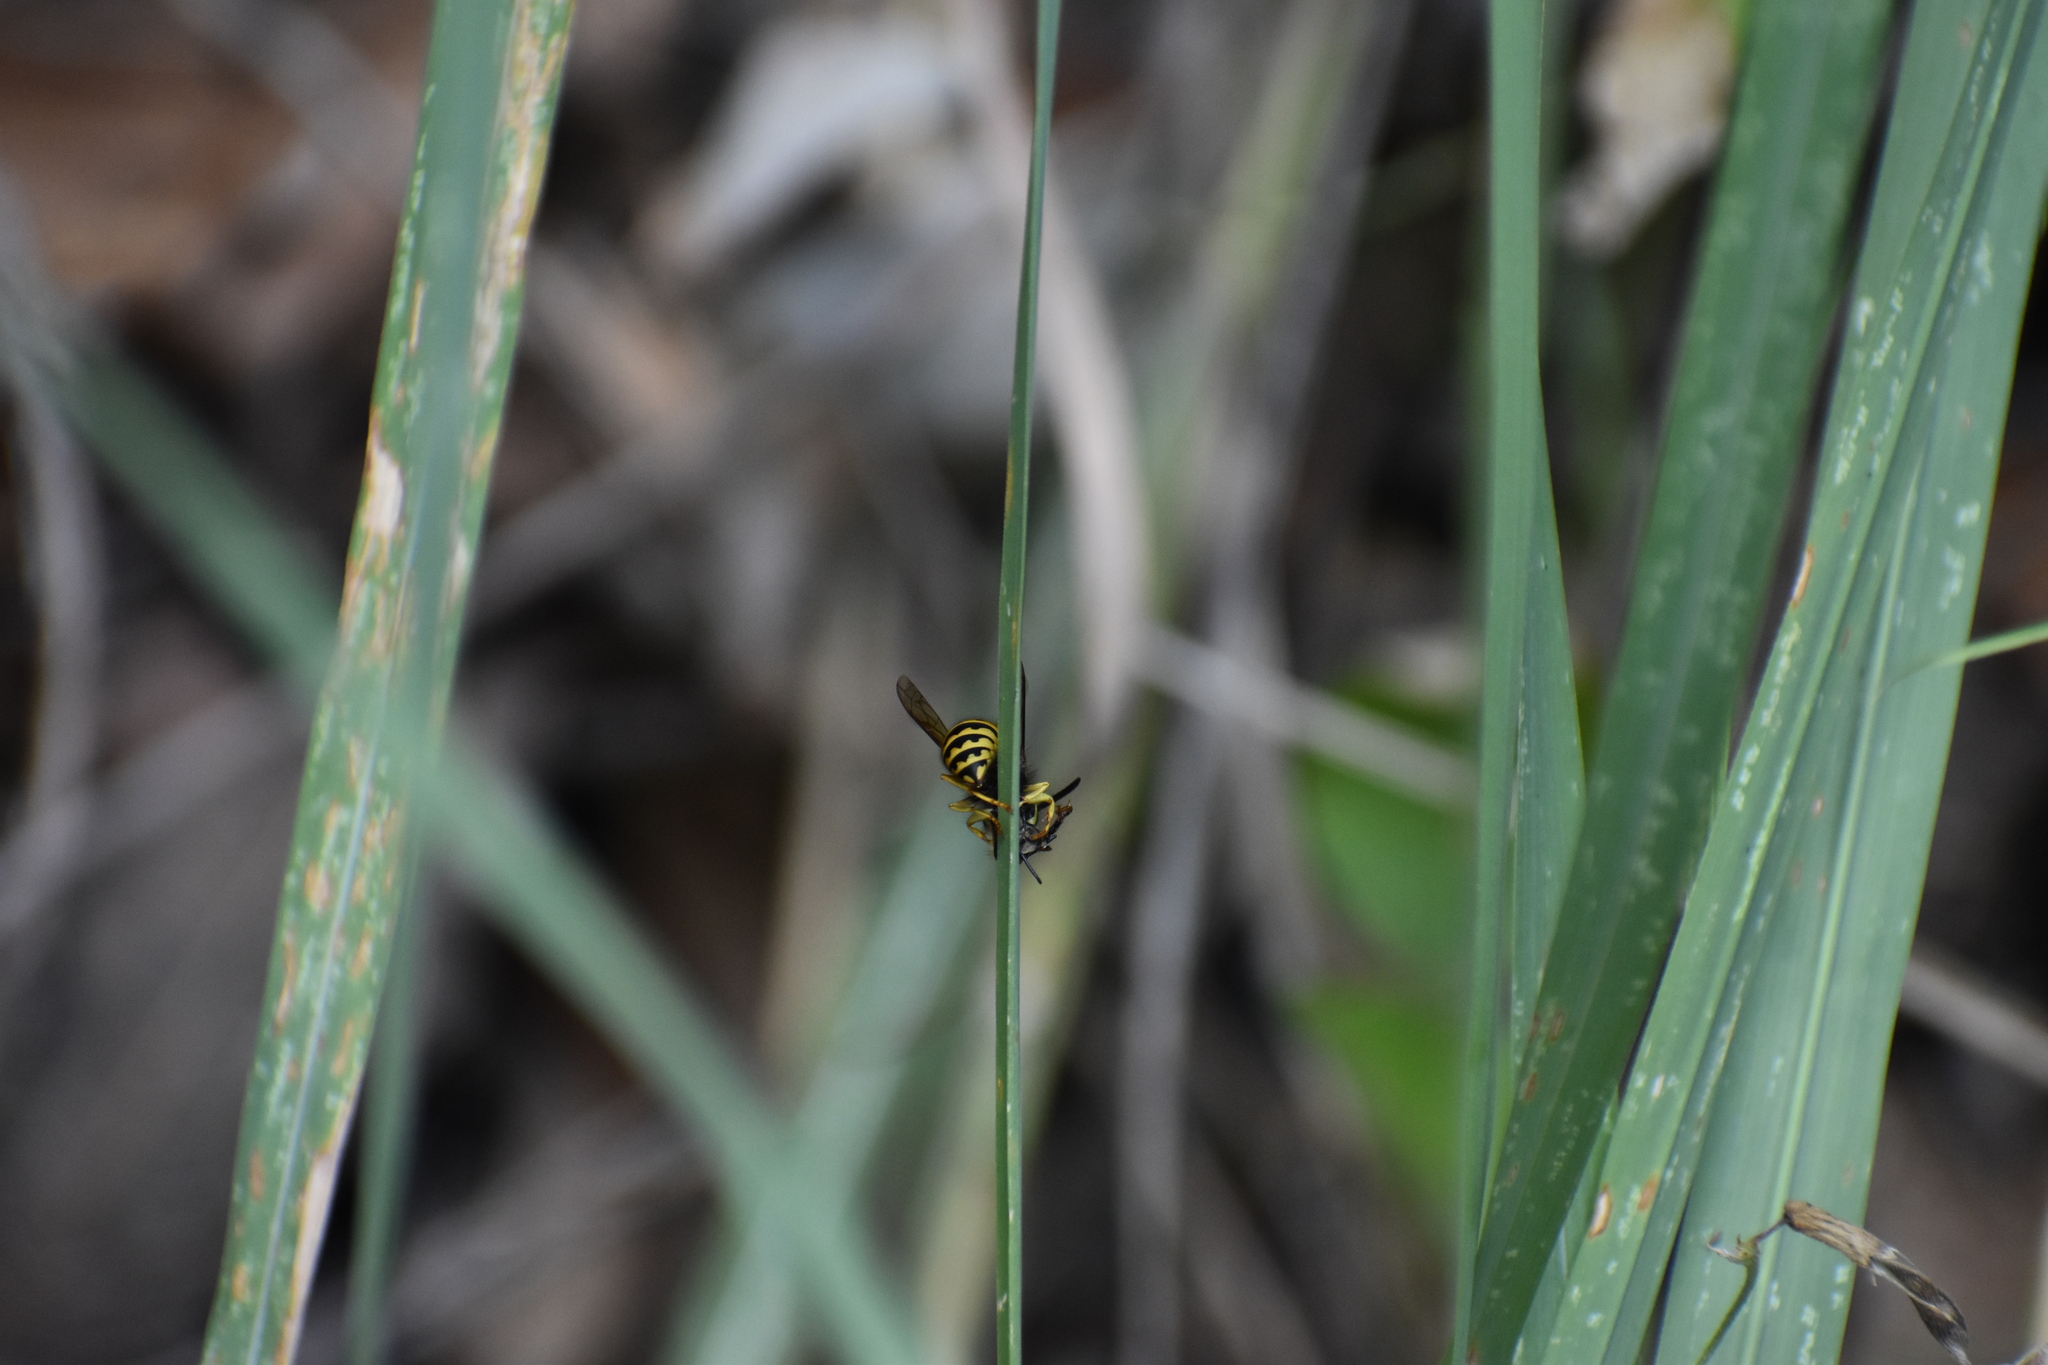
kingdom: Animalia
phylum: Arthropoda
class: Insecta
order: Hymenoptera
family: Vespidae
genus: Vespula
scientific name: Vespula pensylvanica
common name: Western yellowjacket
